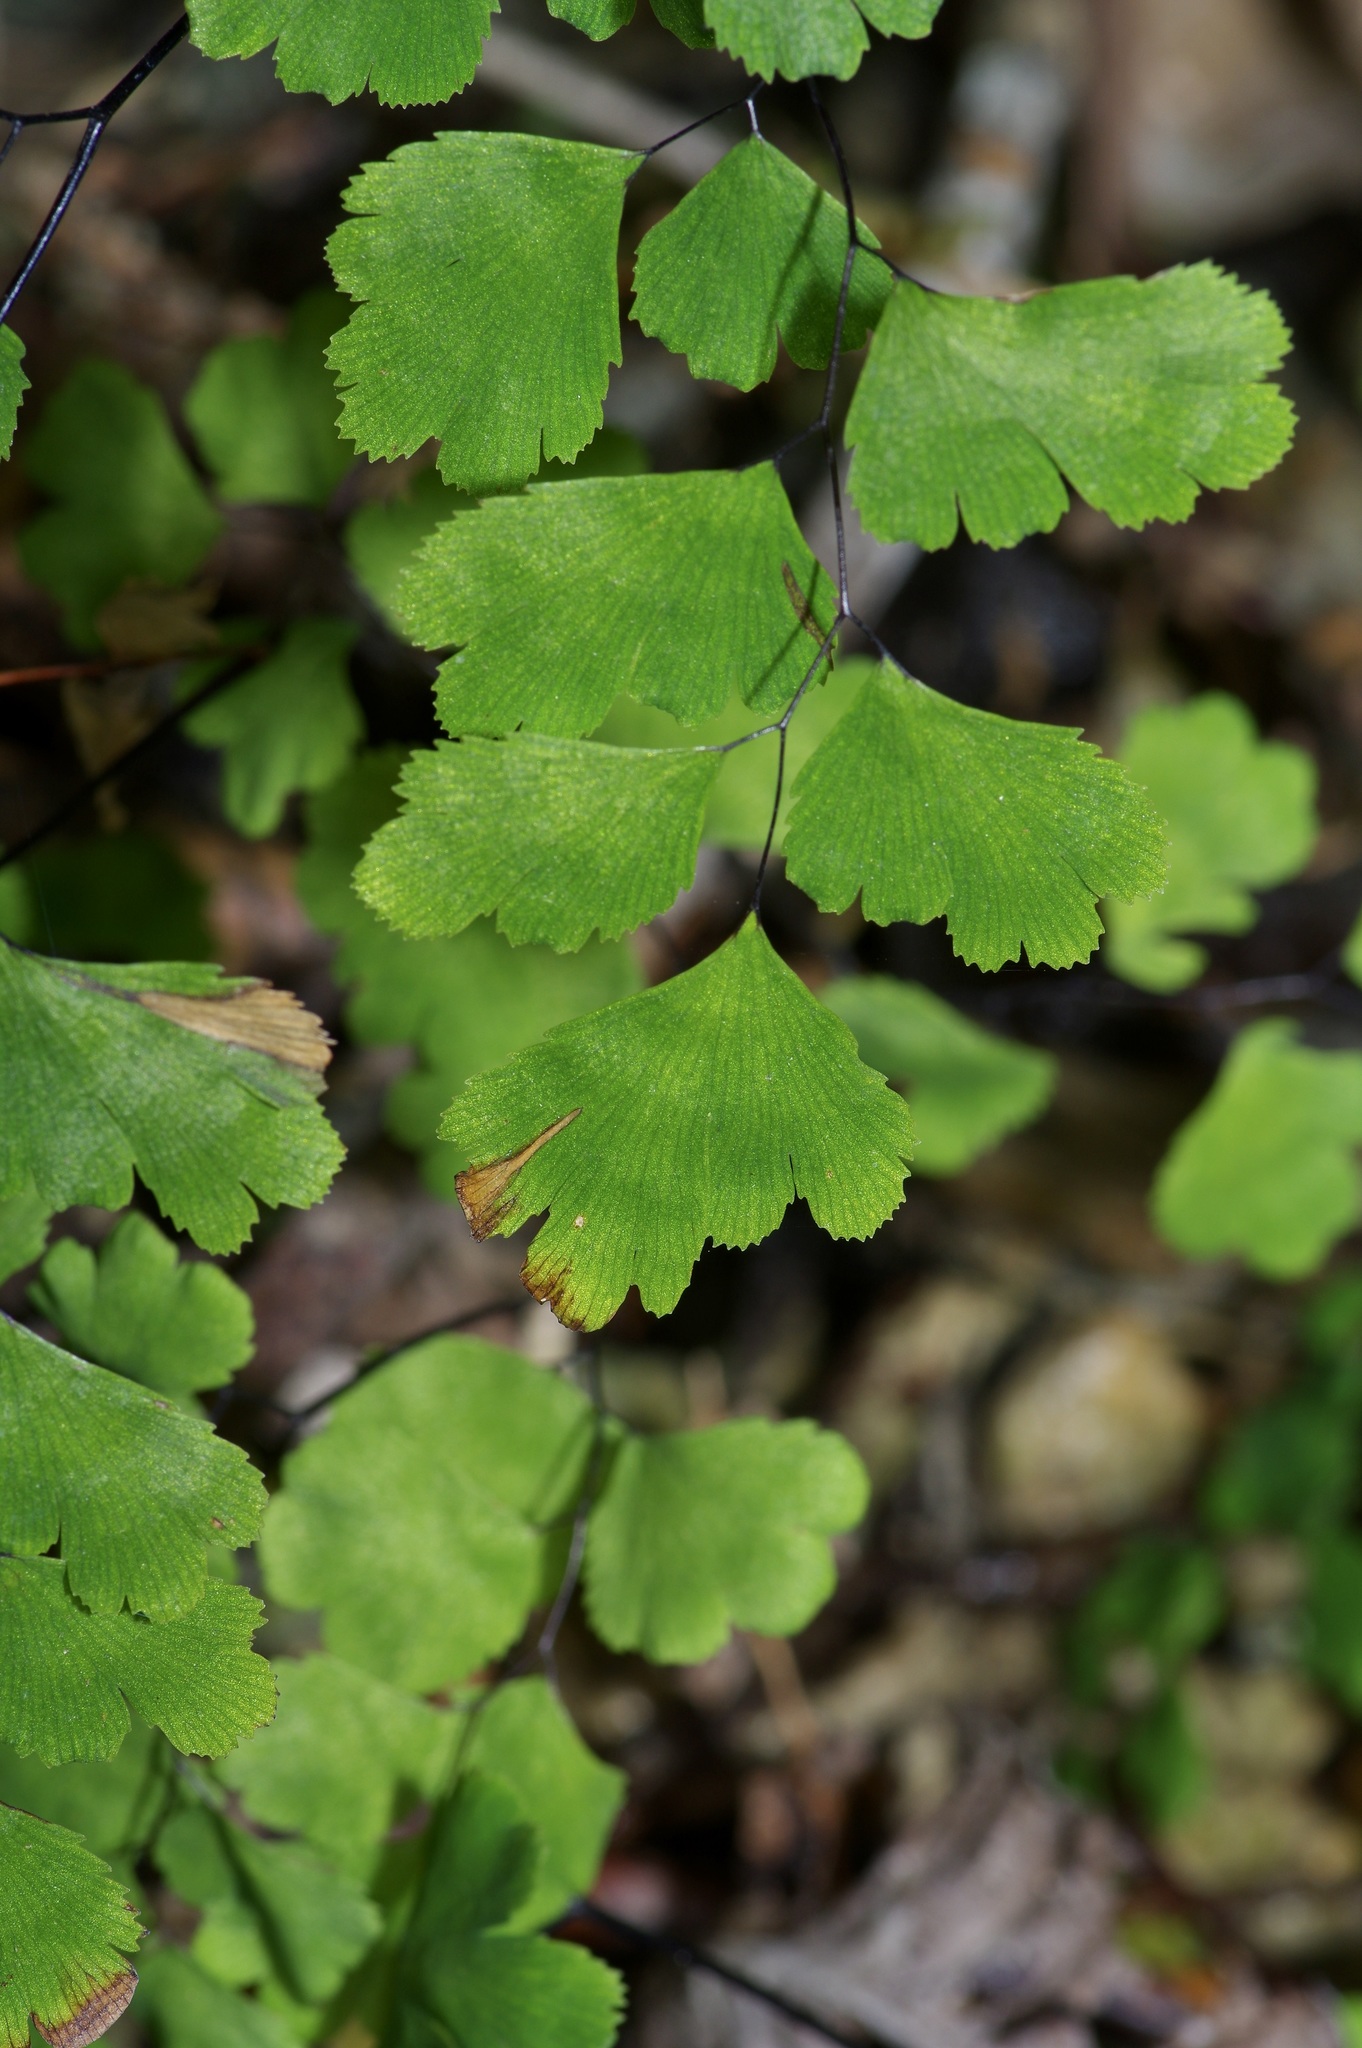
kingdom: Plantae
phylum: Tracheophyta
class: Polypodiopsida
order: Polypodiales
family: Pteridaceae
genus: Adiantum
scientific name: Adiantum capillus-veneris
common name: Maidenhair fern
